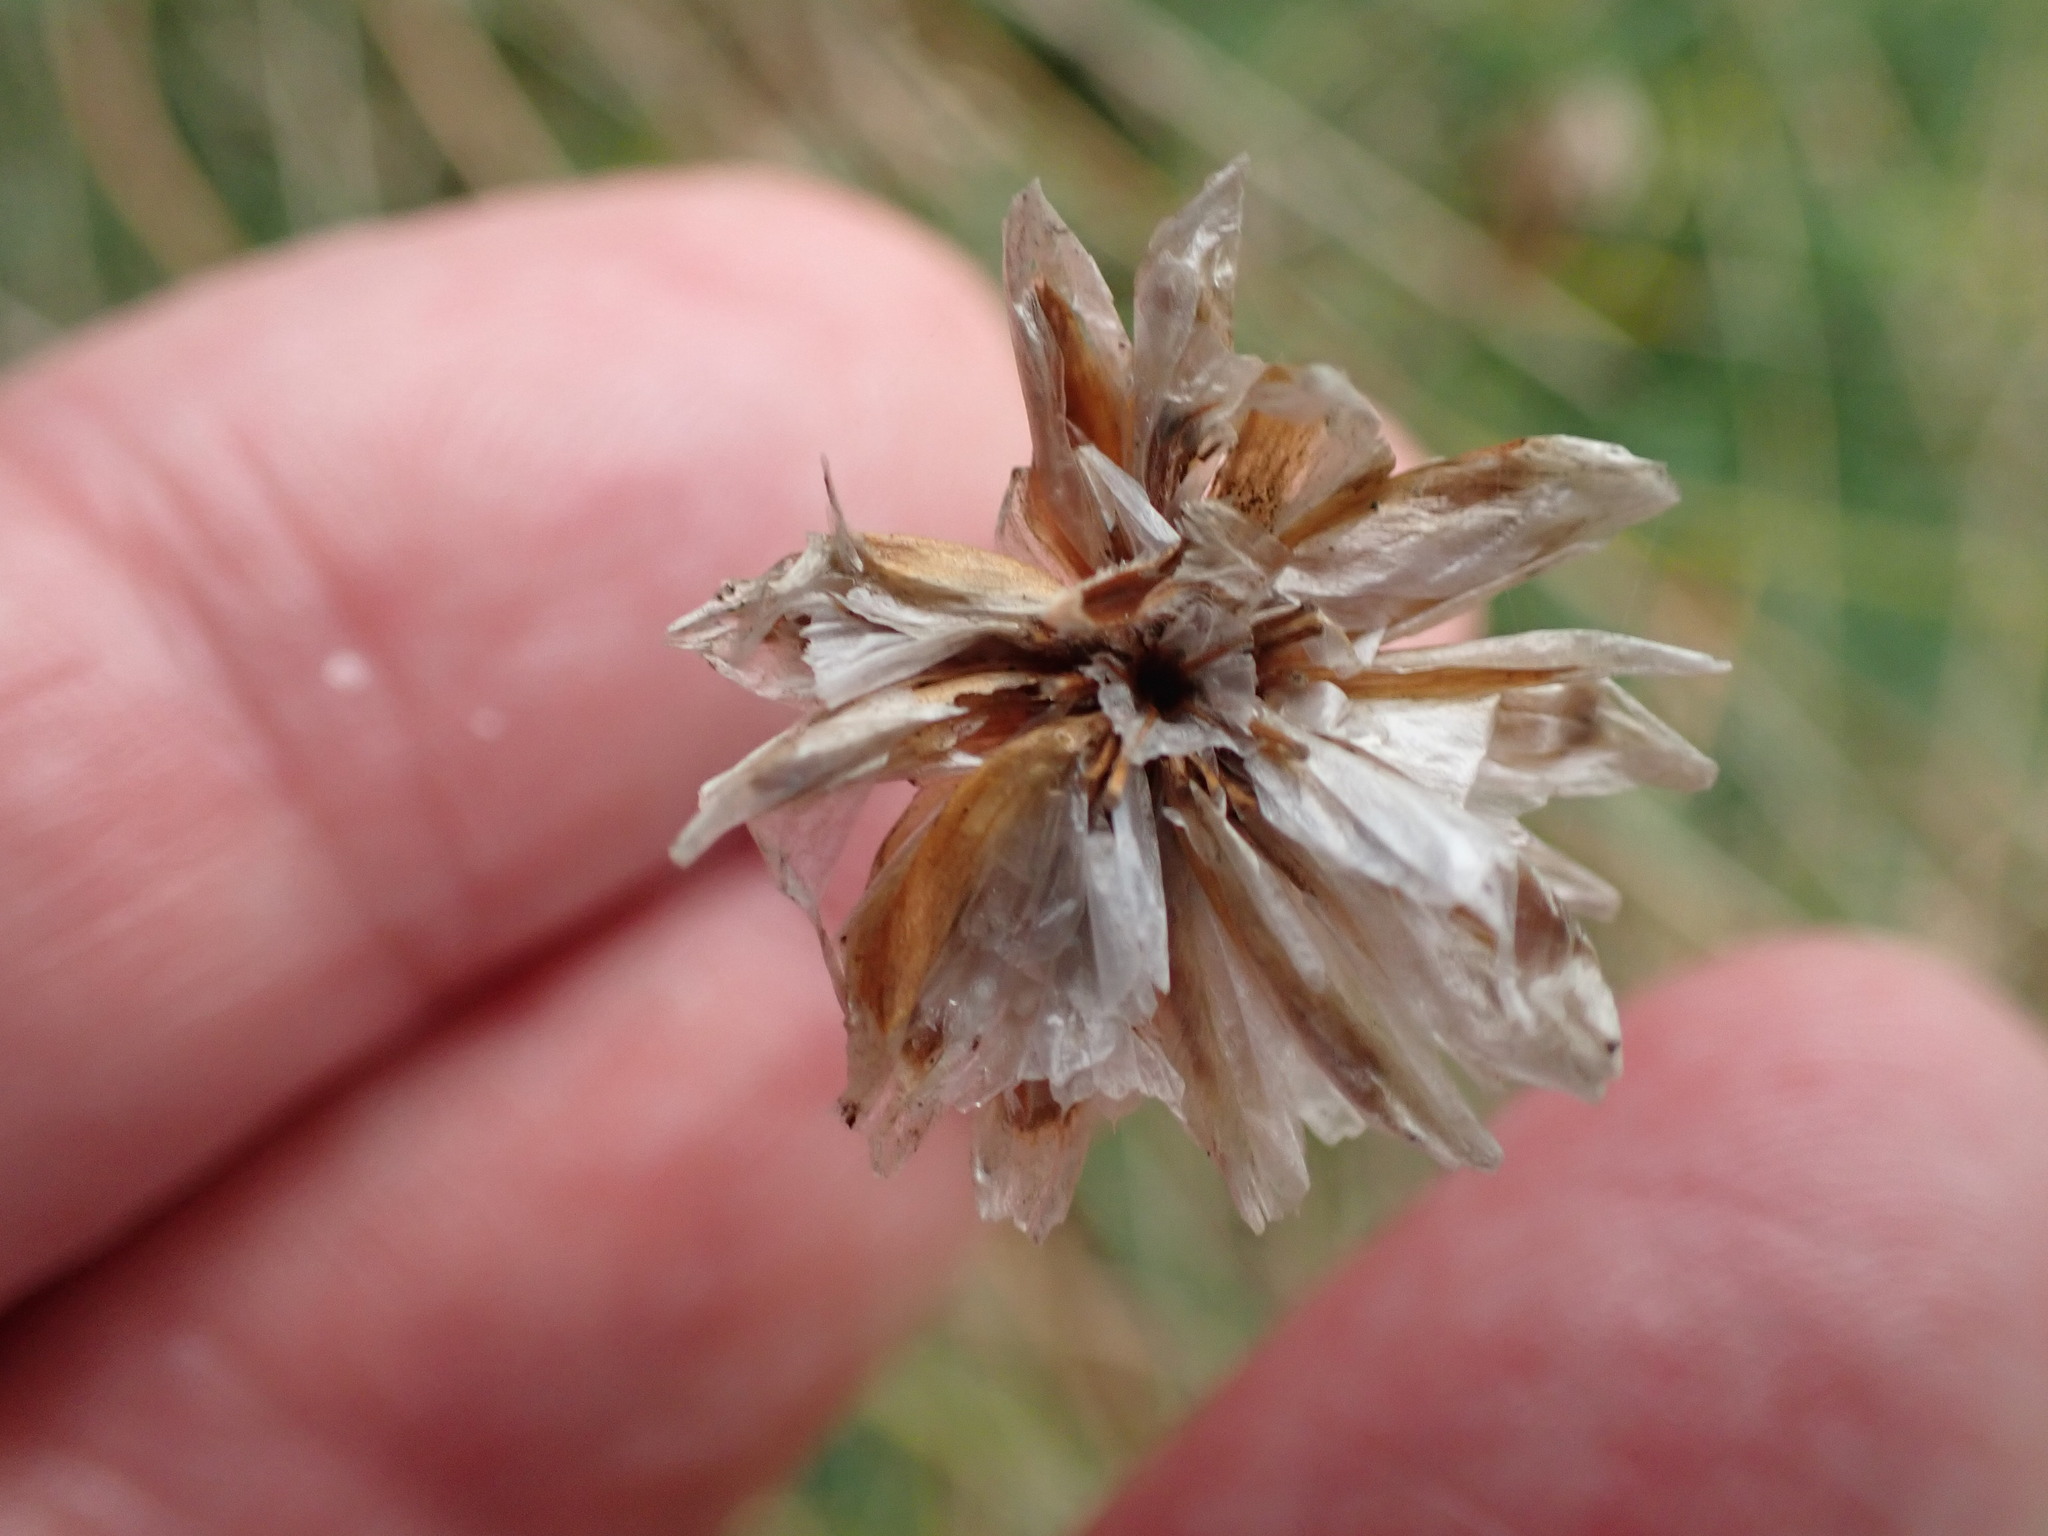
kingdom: Plantae
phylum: Tracheophyta
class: Magnoliopsida
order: Caryophyllales
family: Plumbaginaceae
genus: Armeria
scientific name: Armeria maritima
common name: Thrift
